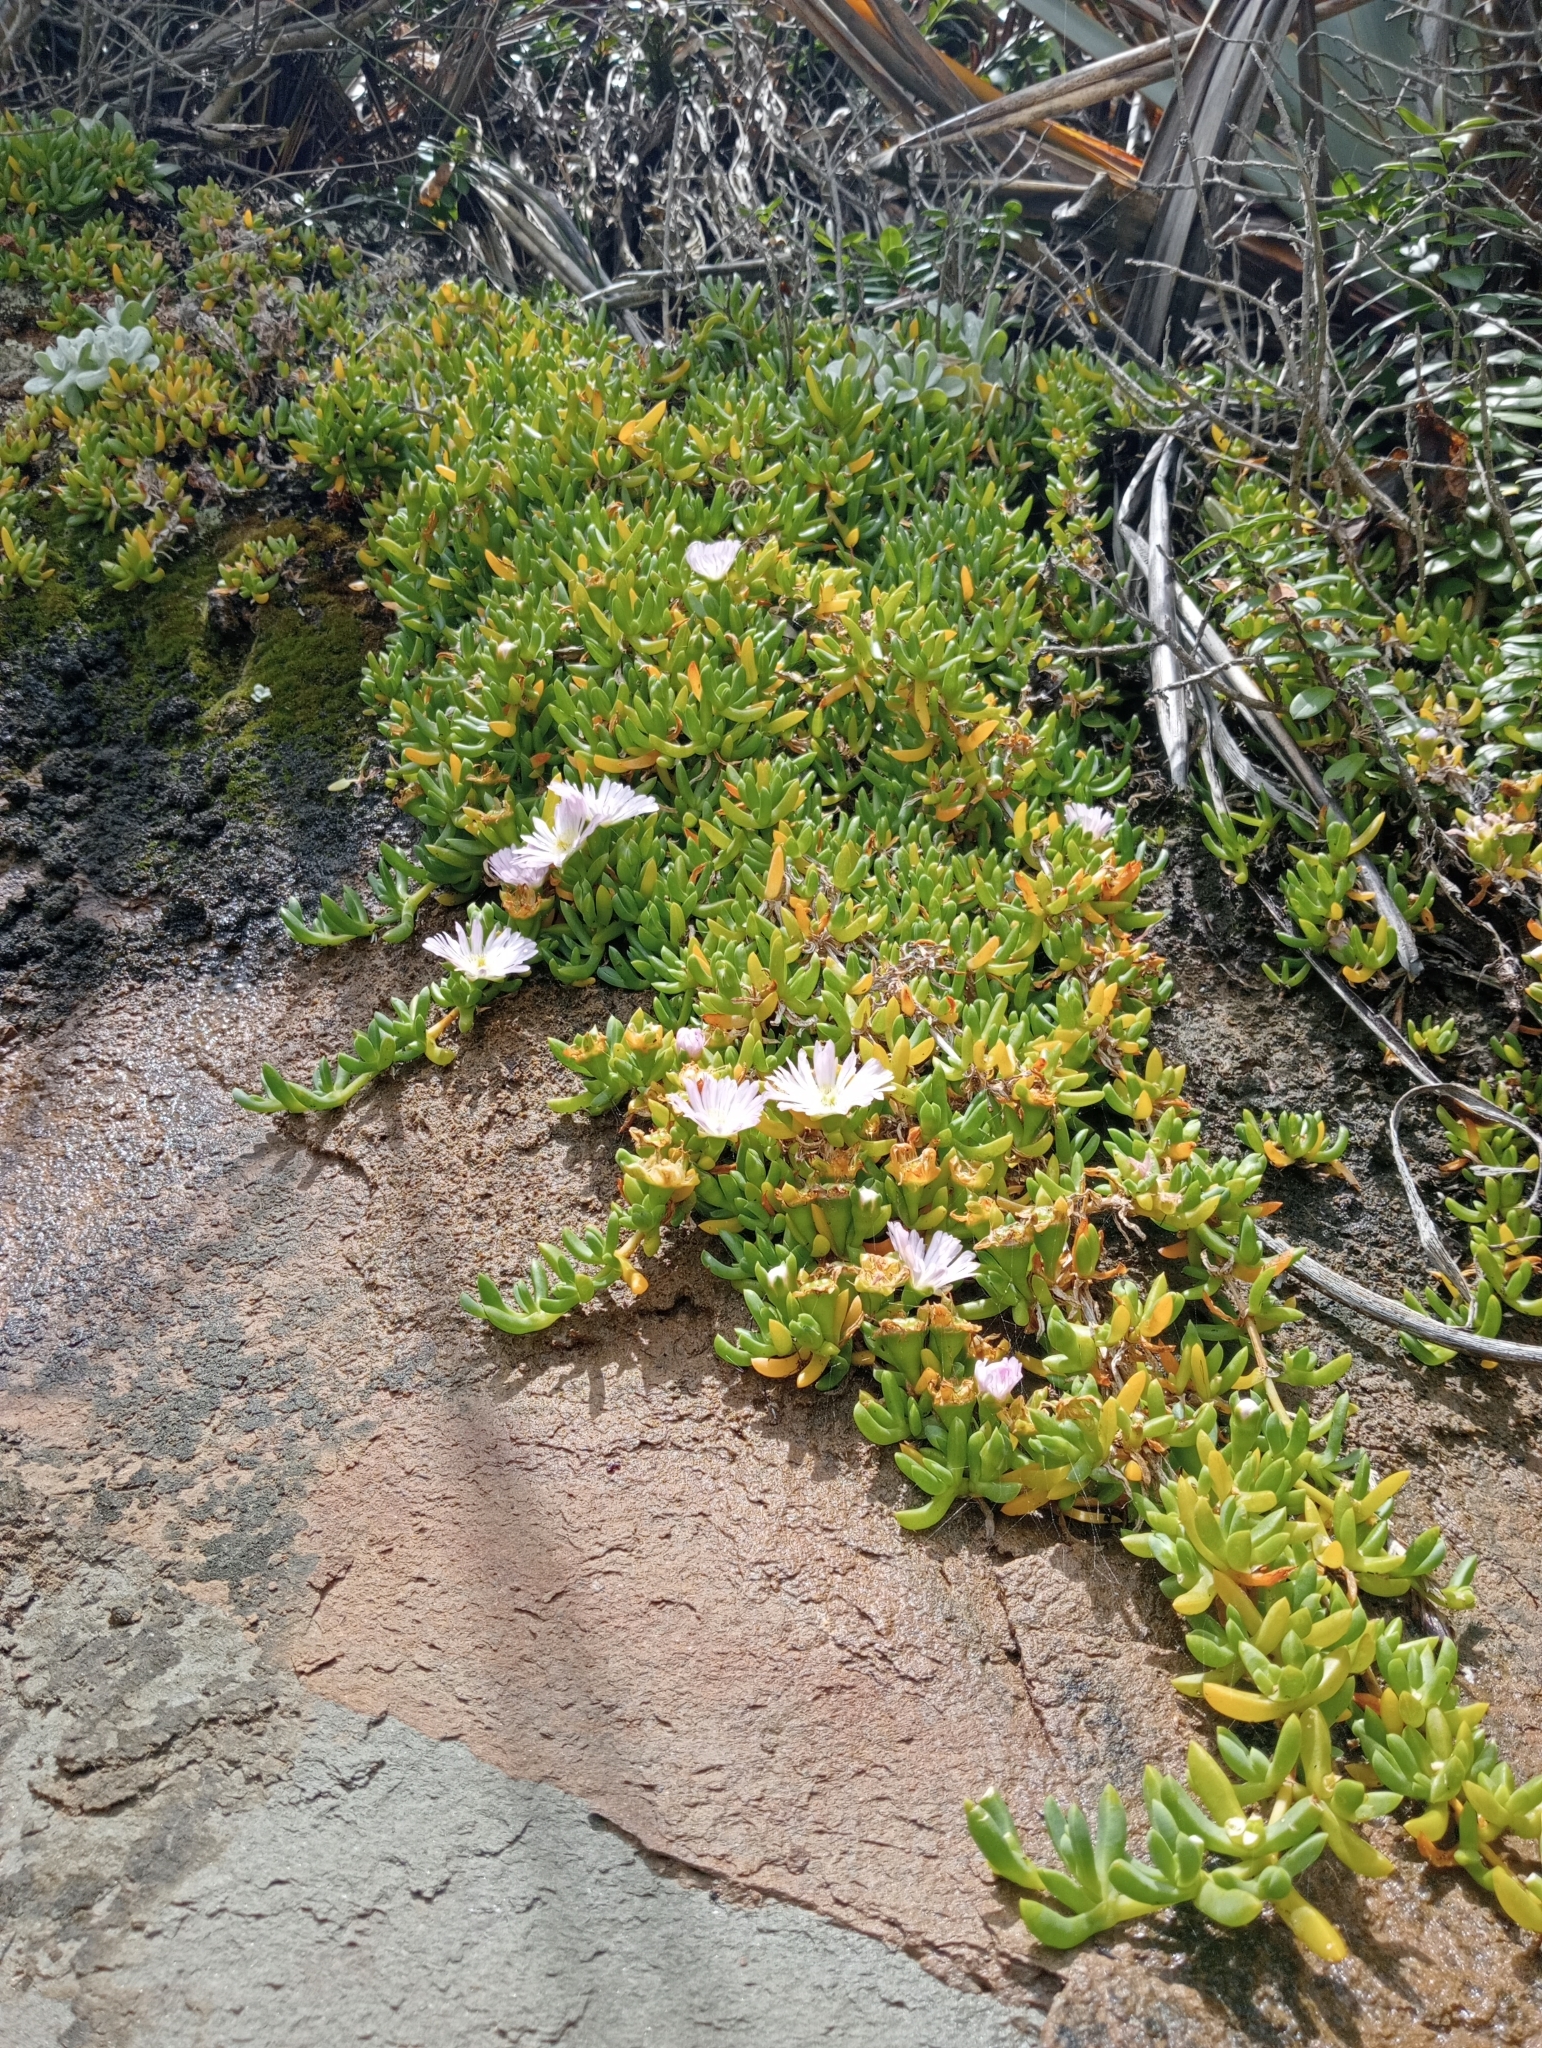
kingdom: Plantae
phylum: Tracheophyta
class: Magnoliopsida
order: Caryophyllales
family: Aizoaceae
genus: Disphyma
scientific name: Disphyma australe
